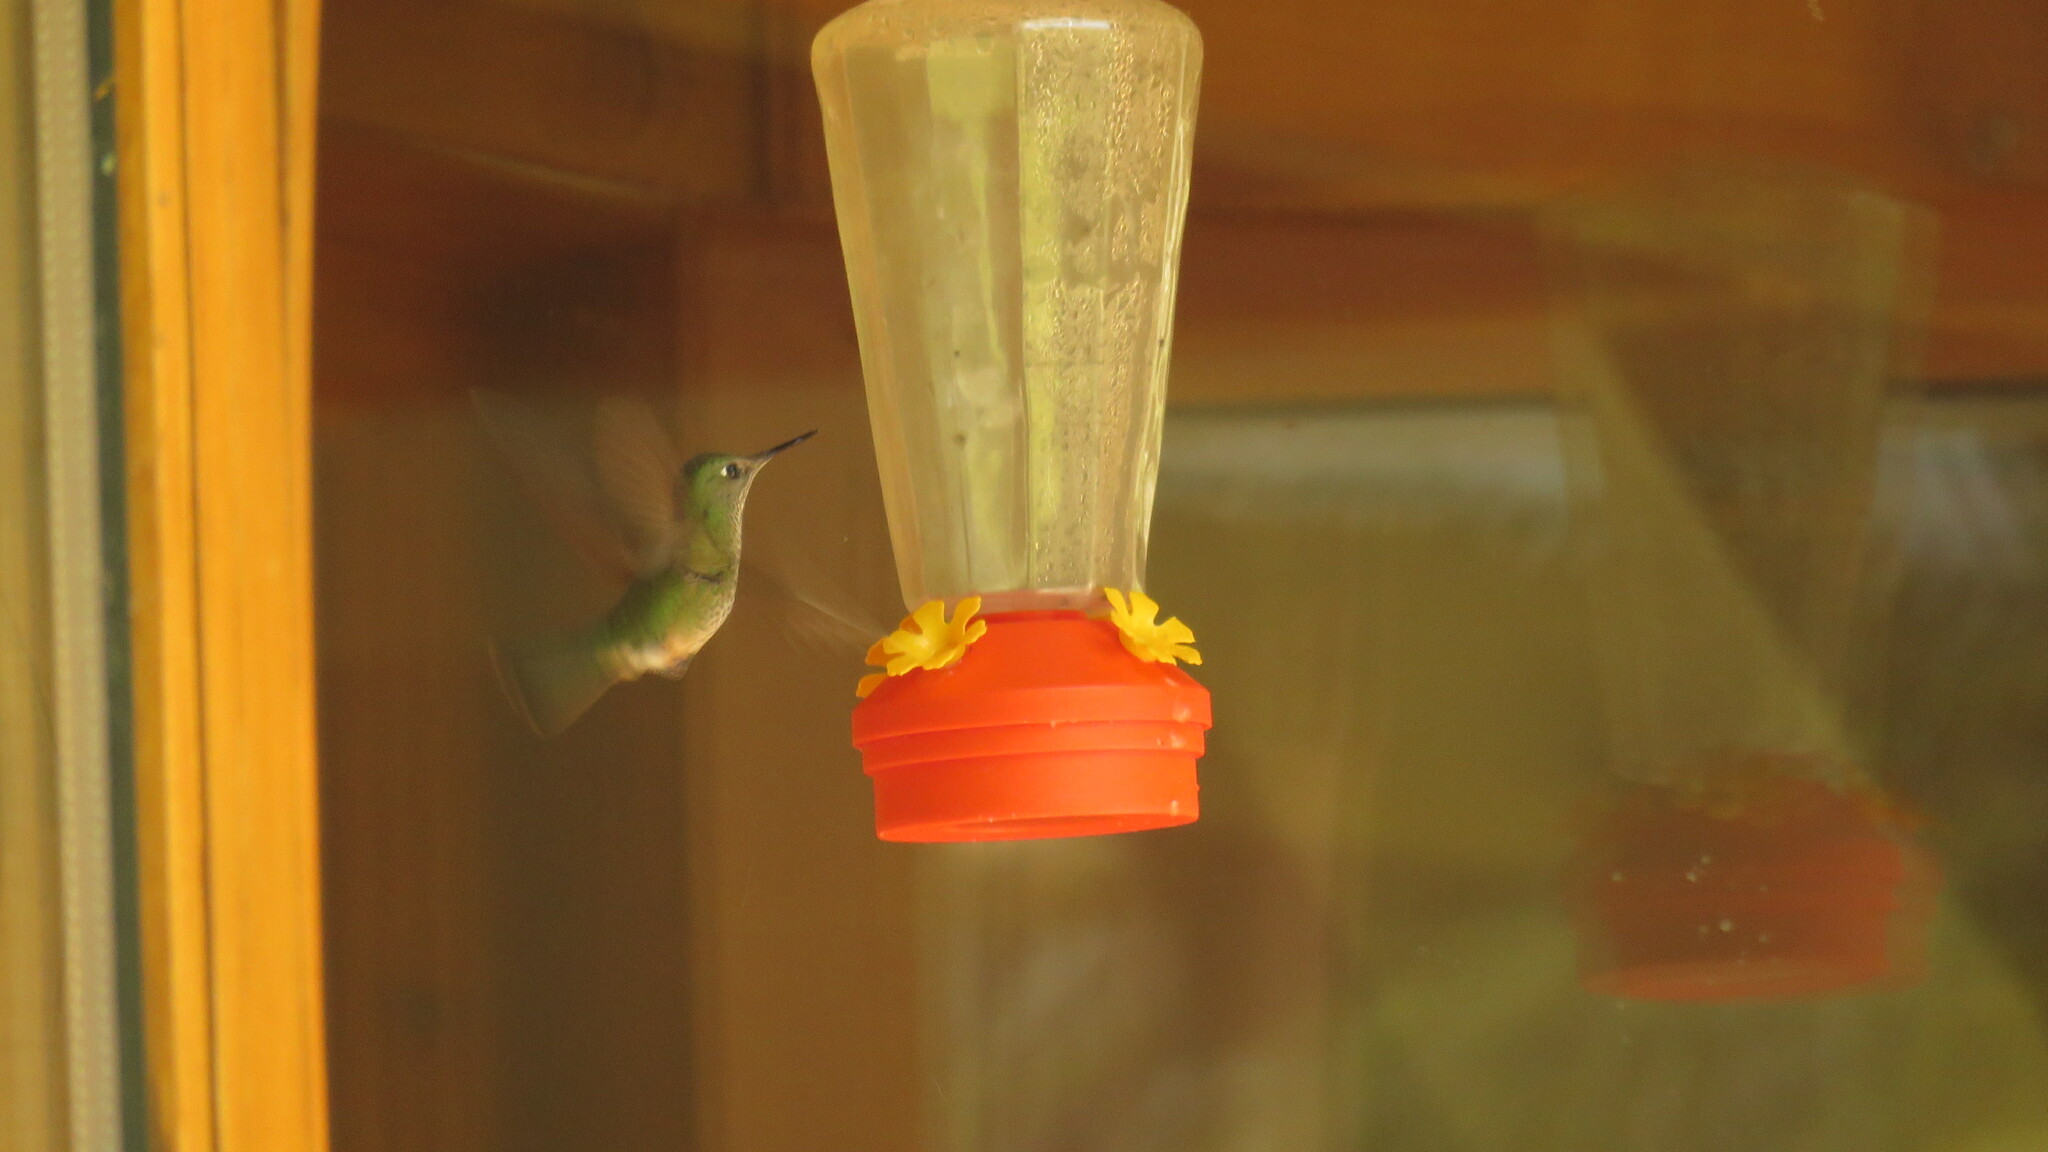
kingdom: Animalia
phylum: Chordata
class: Aves
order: Apodiformes
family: Trochilidae
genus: Sephanoides
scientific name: Sephanoides sephaniodes
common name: Green-backed firecrown
